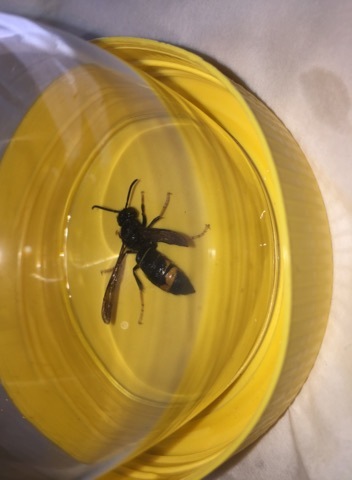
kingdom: Animalia
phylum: Arthropoda
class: Insecta
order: Hymenoptera
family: Vespidae
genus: Vespa
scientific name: Vespa velutina
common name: Asian hornet
